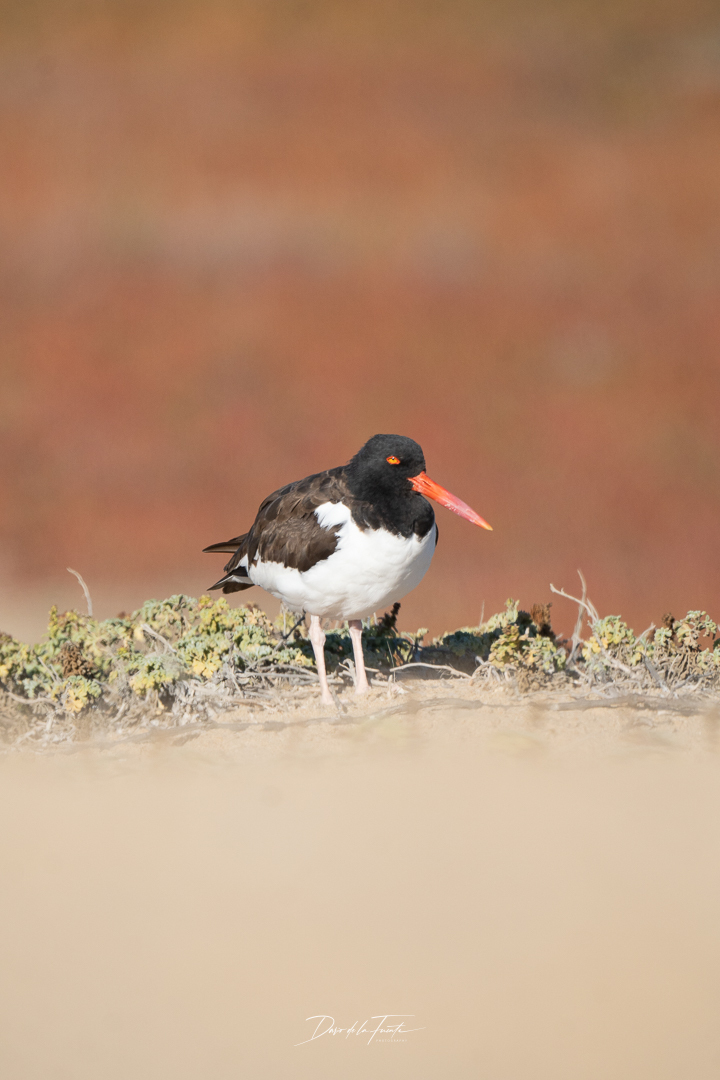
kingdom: Animalia
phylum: Chordata
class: Aves
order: Charadriiformes
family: Haematopodidae
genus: Haematopus
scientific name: Haematopus palliatus
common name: American oystercatcher
